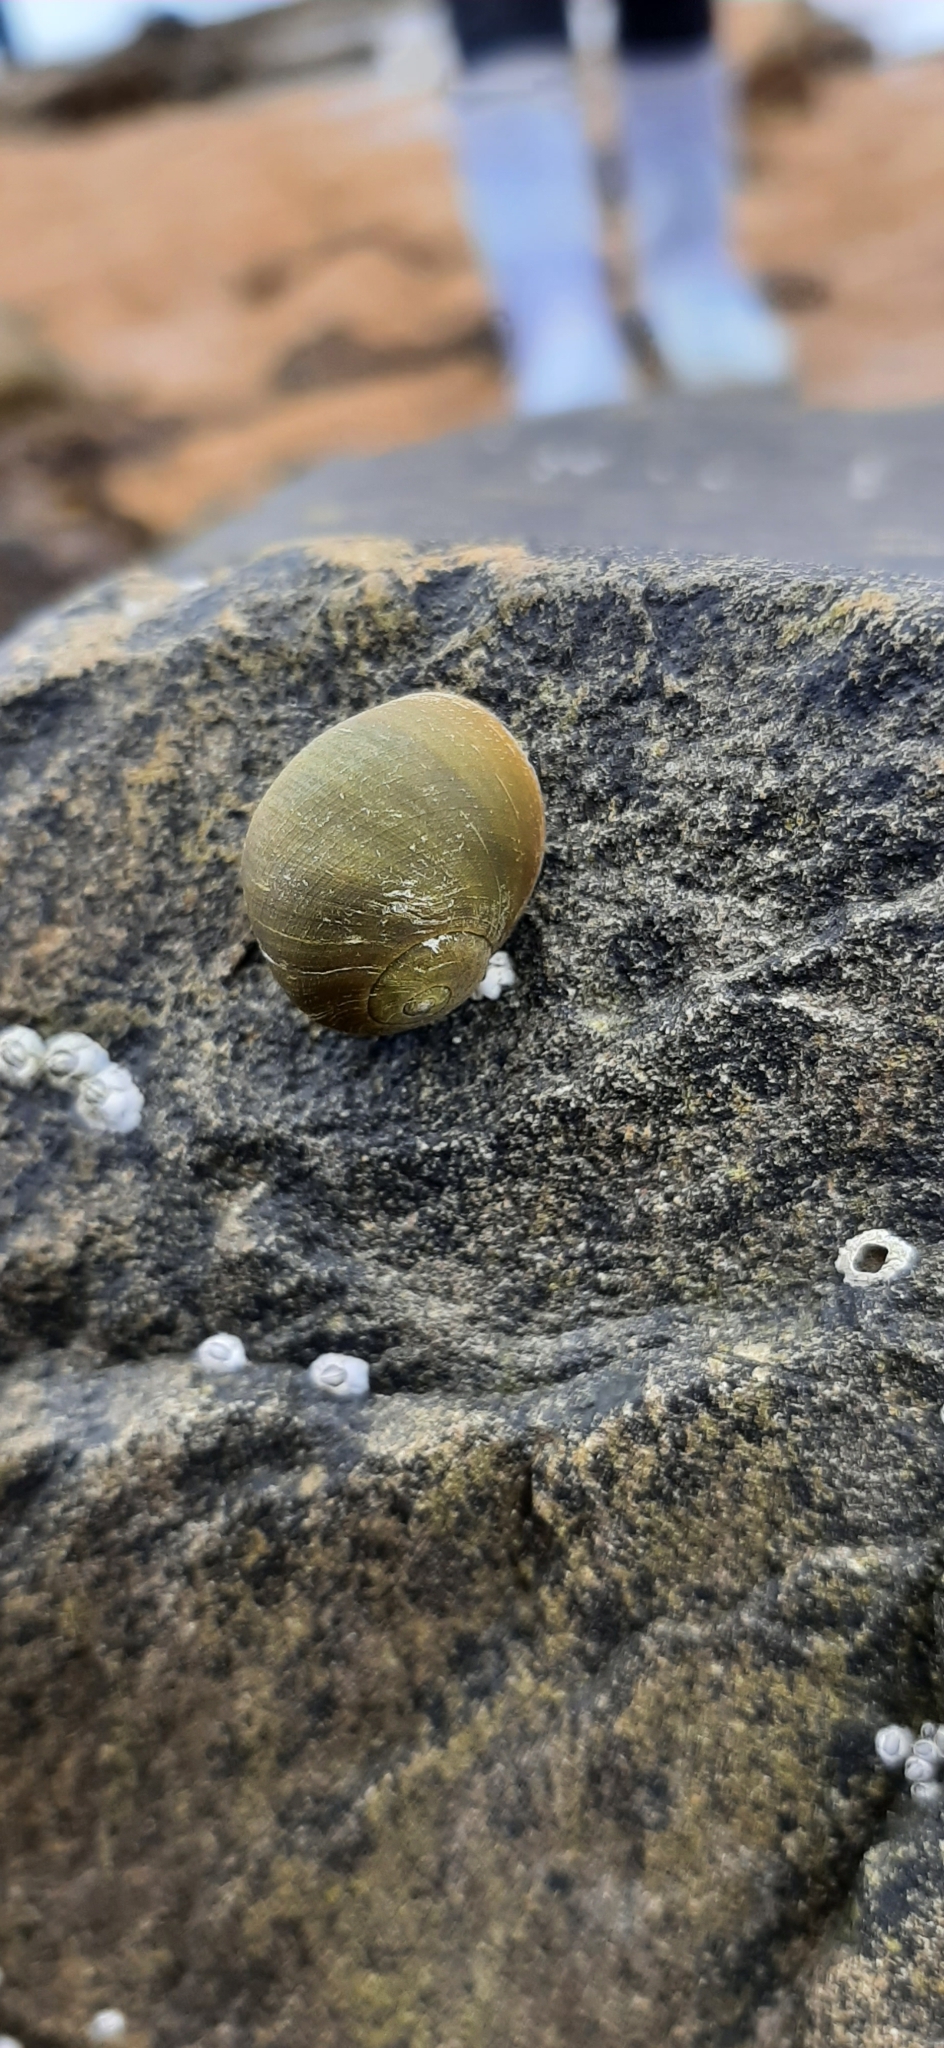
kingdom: Animalia
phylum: Mollusca
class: Gastropoda
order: Littorinimorpha
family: Littorinidae
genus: Littorina
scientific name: Littorina
